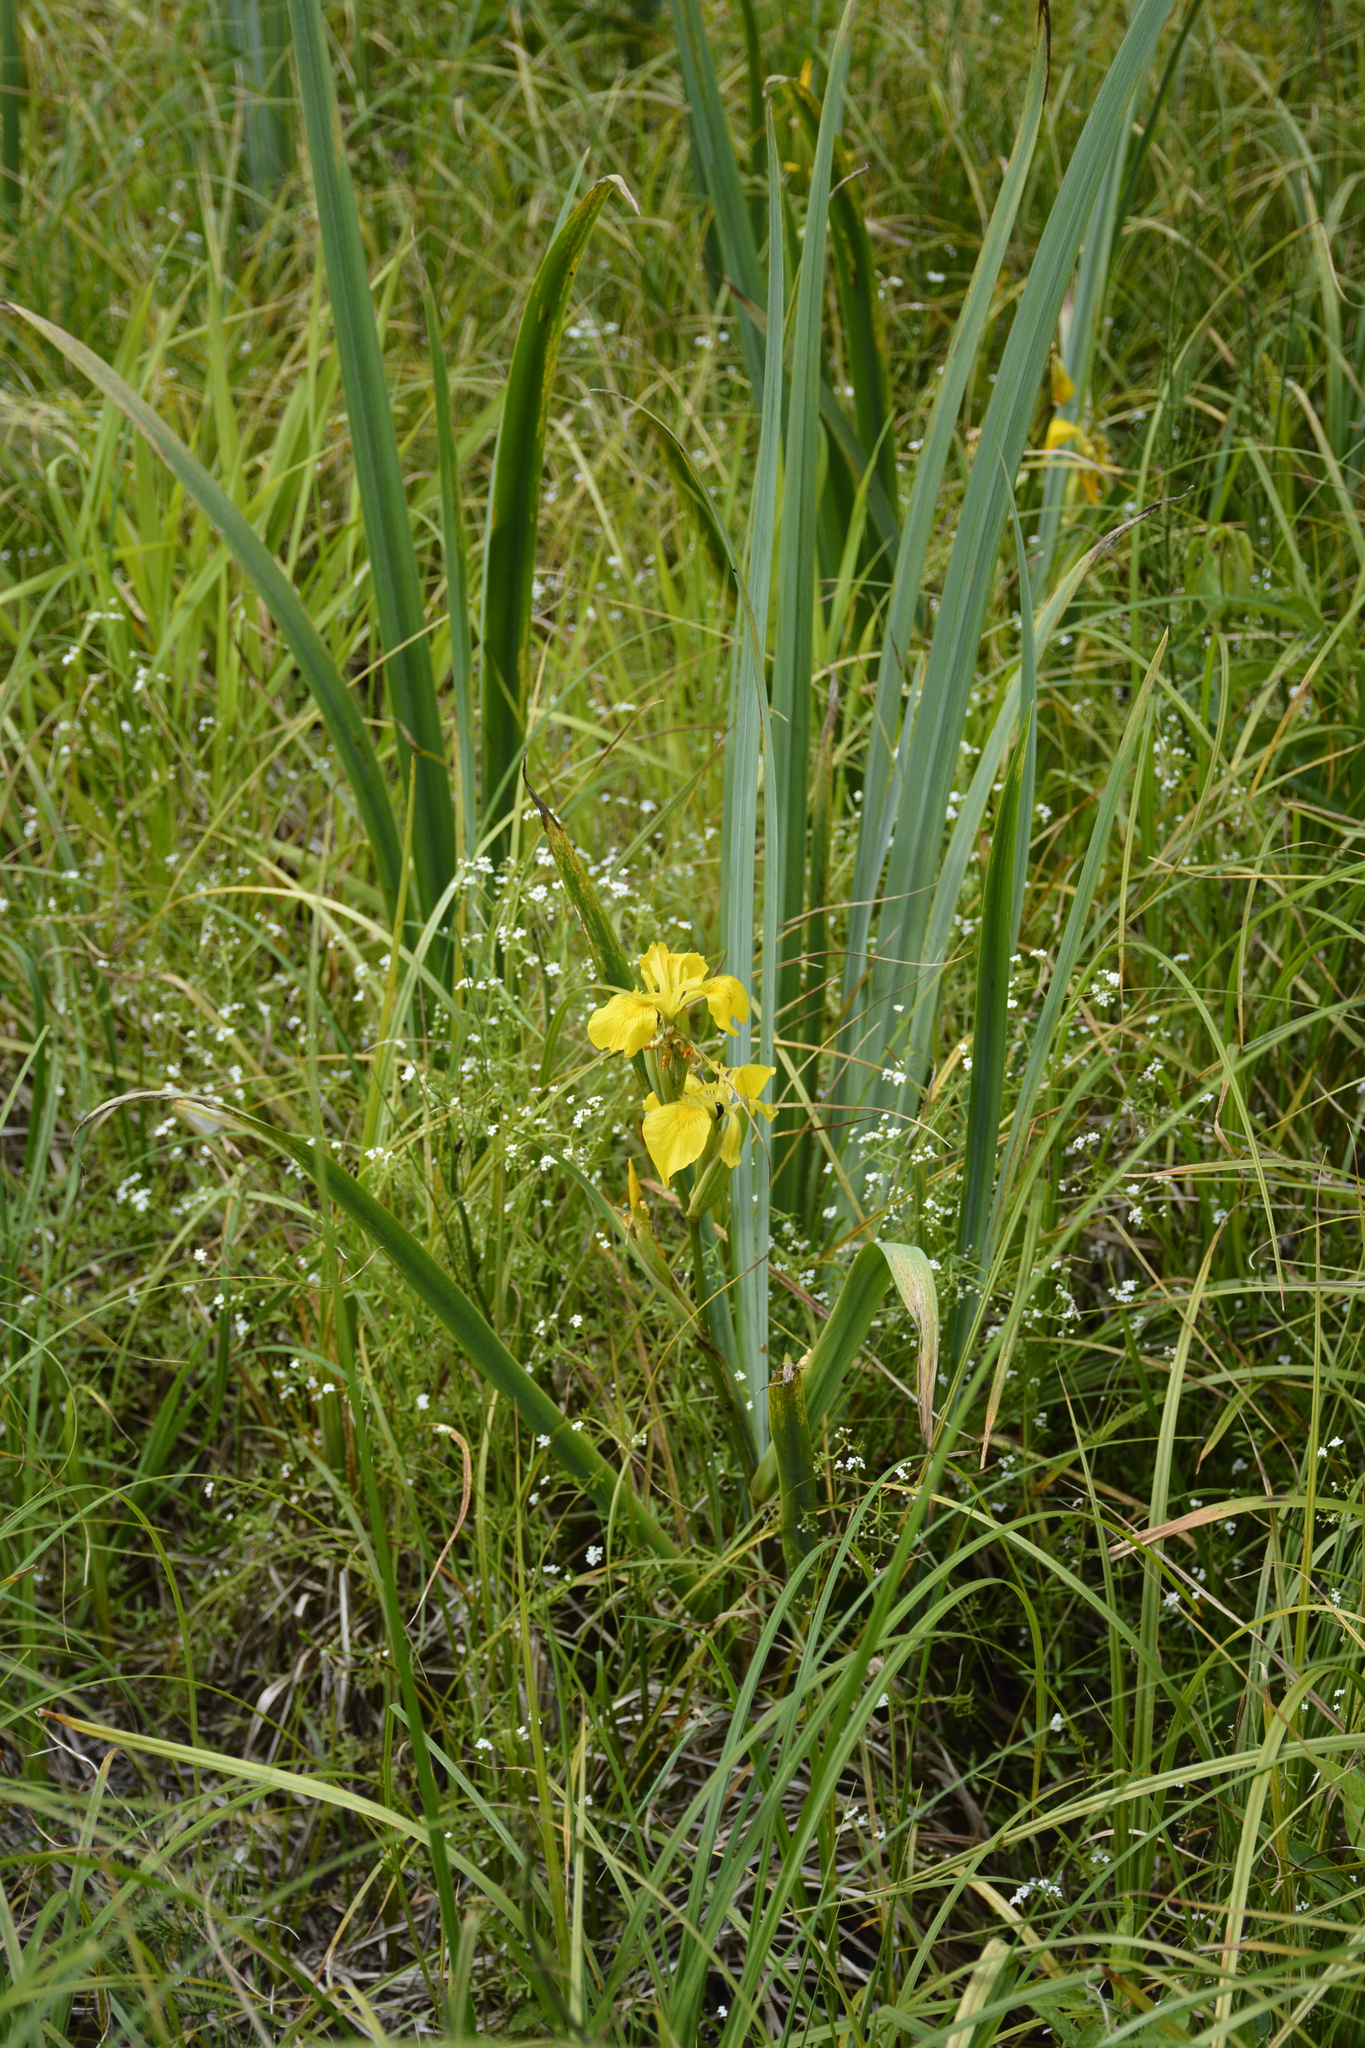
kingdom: Plantae
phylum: Tracheophyta
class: Liliopsida
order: Asparagales
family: Iridaceae
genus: Iris
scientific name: Iris pseudacorus
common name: Yellow flag
